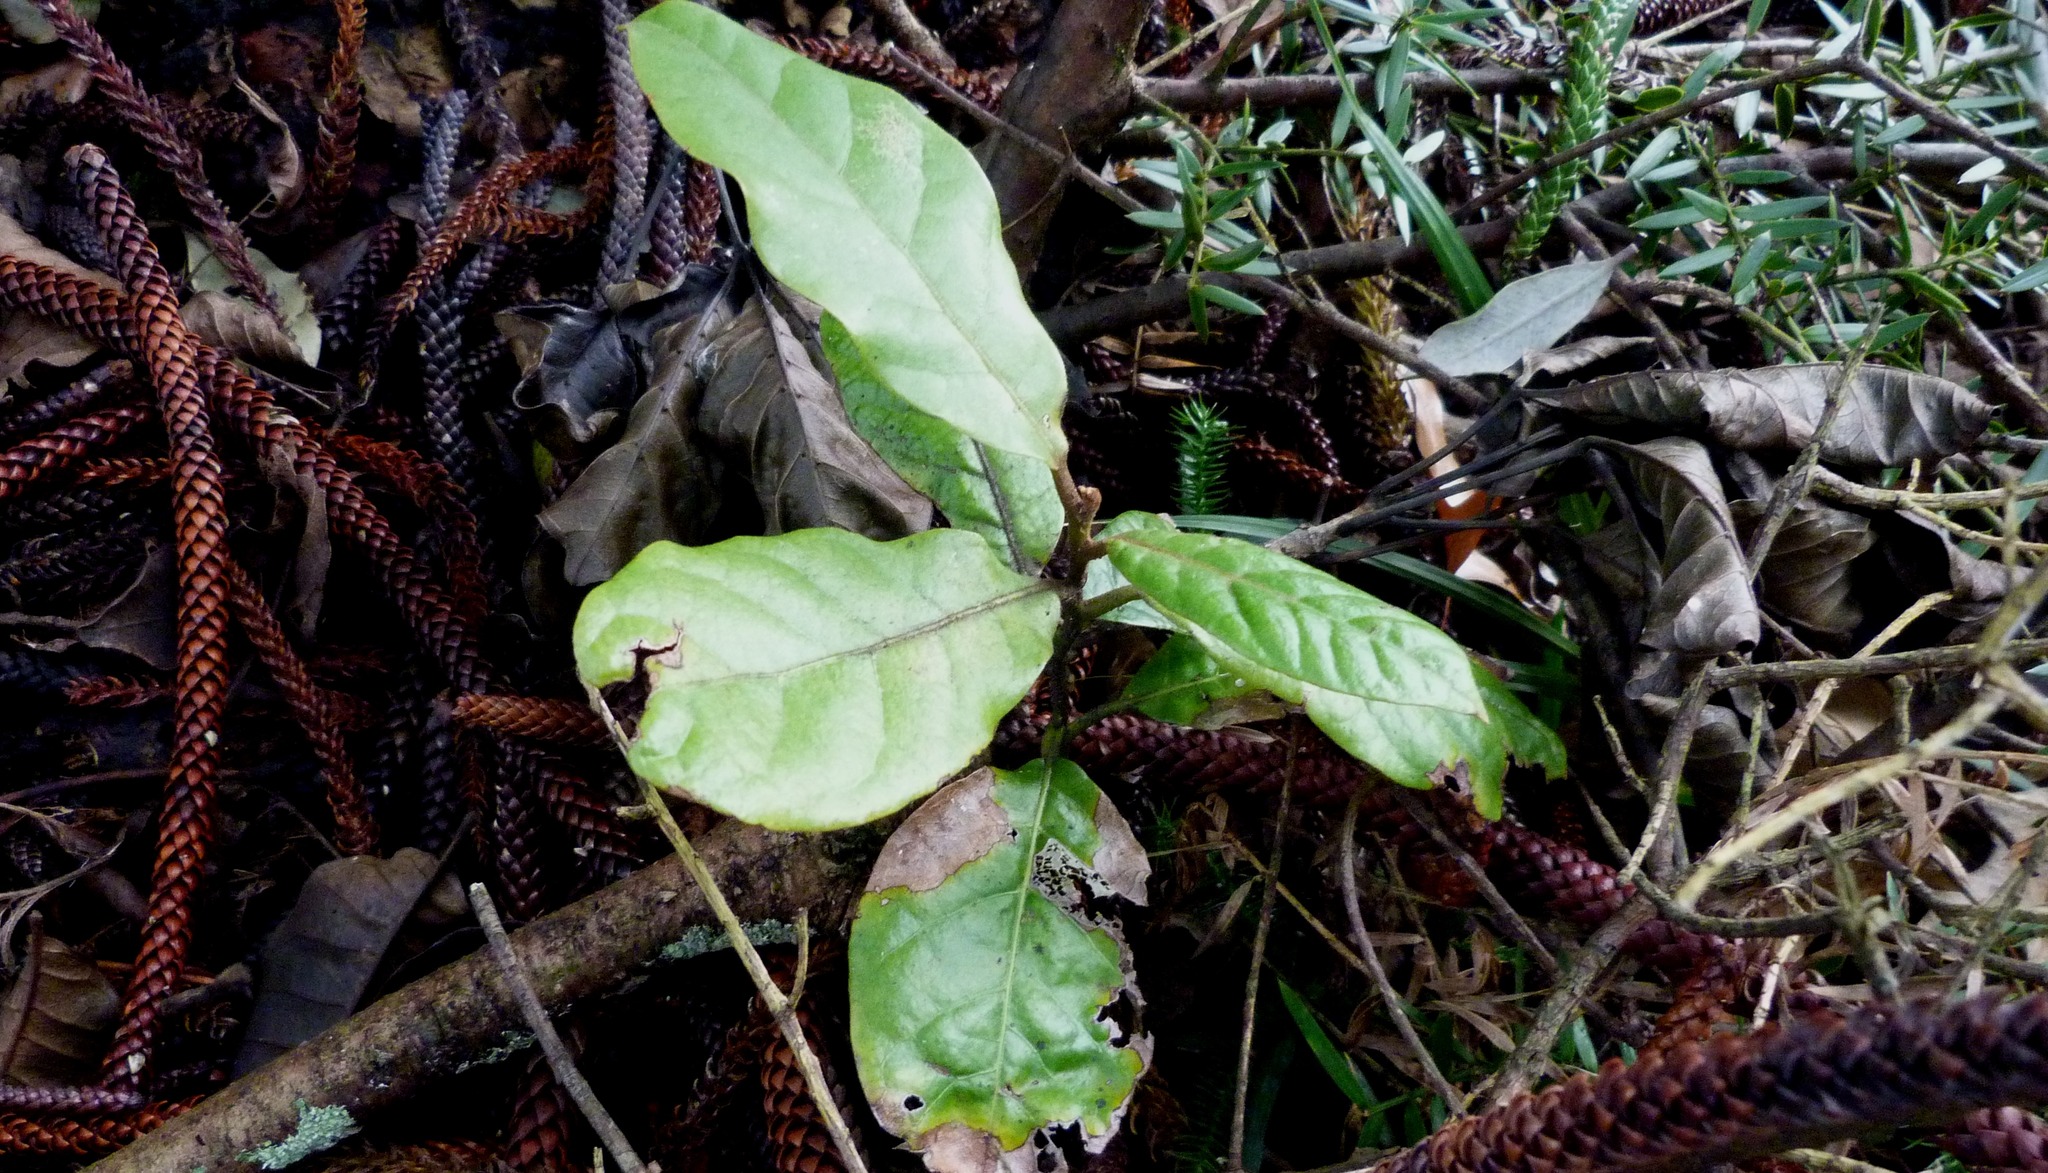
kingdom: Plantae
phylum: Tracheophyta
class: Magnoliopsida
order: Laurales
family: Lauraceae
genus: Beilschmiedia
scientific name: Beilschmiedia tarairi
